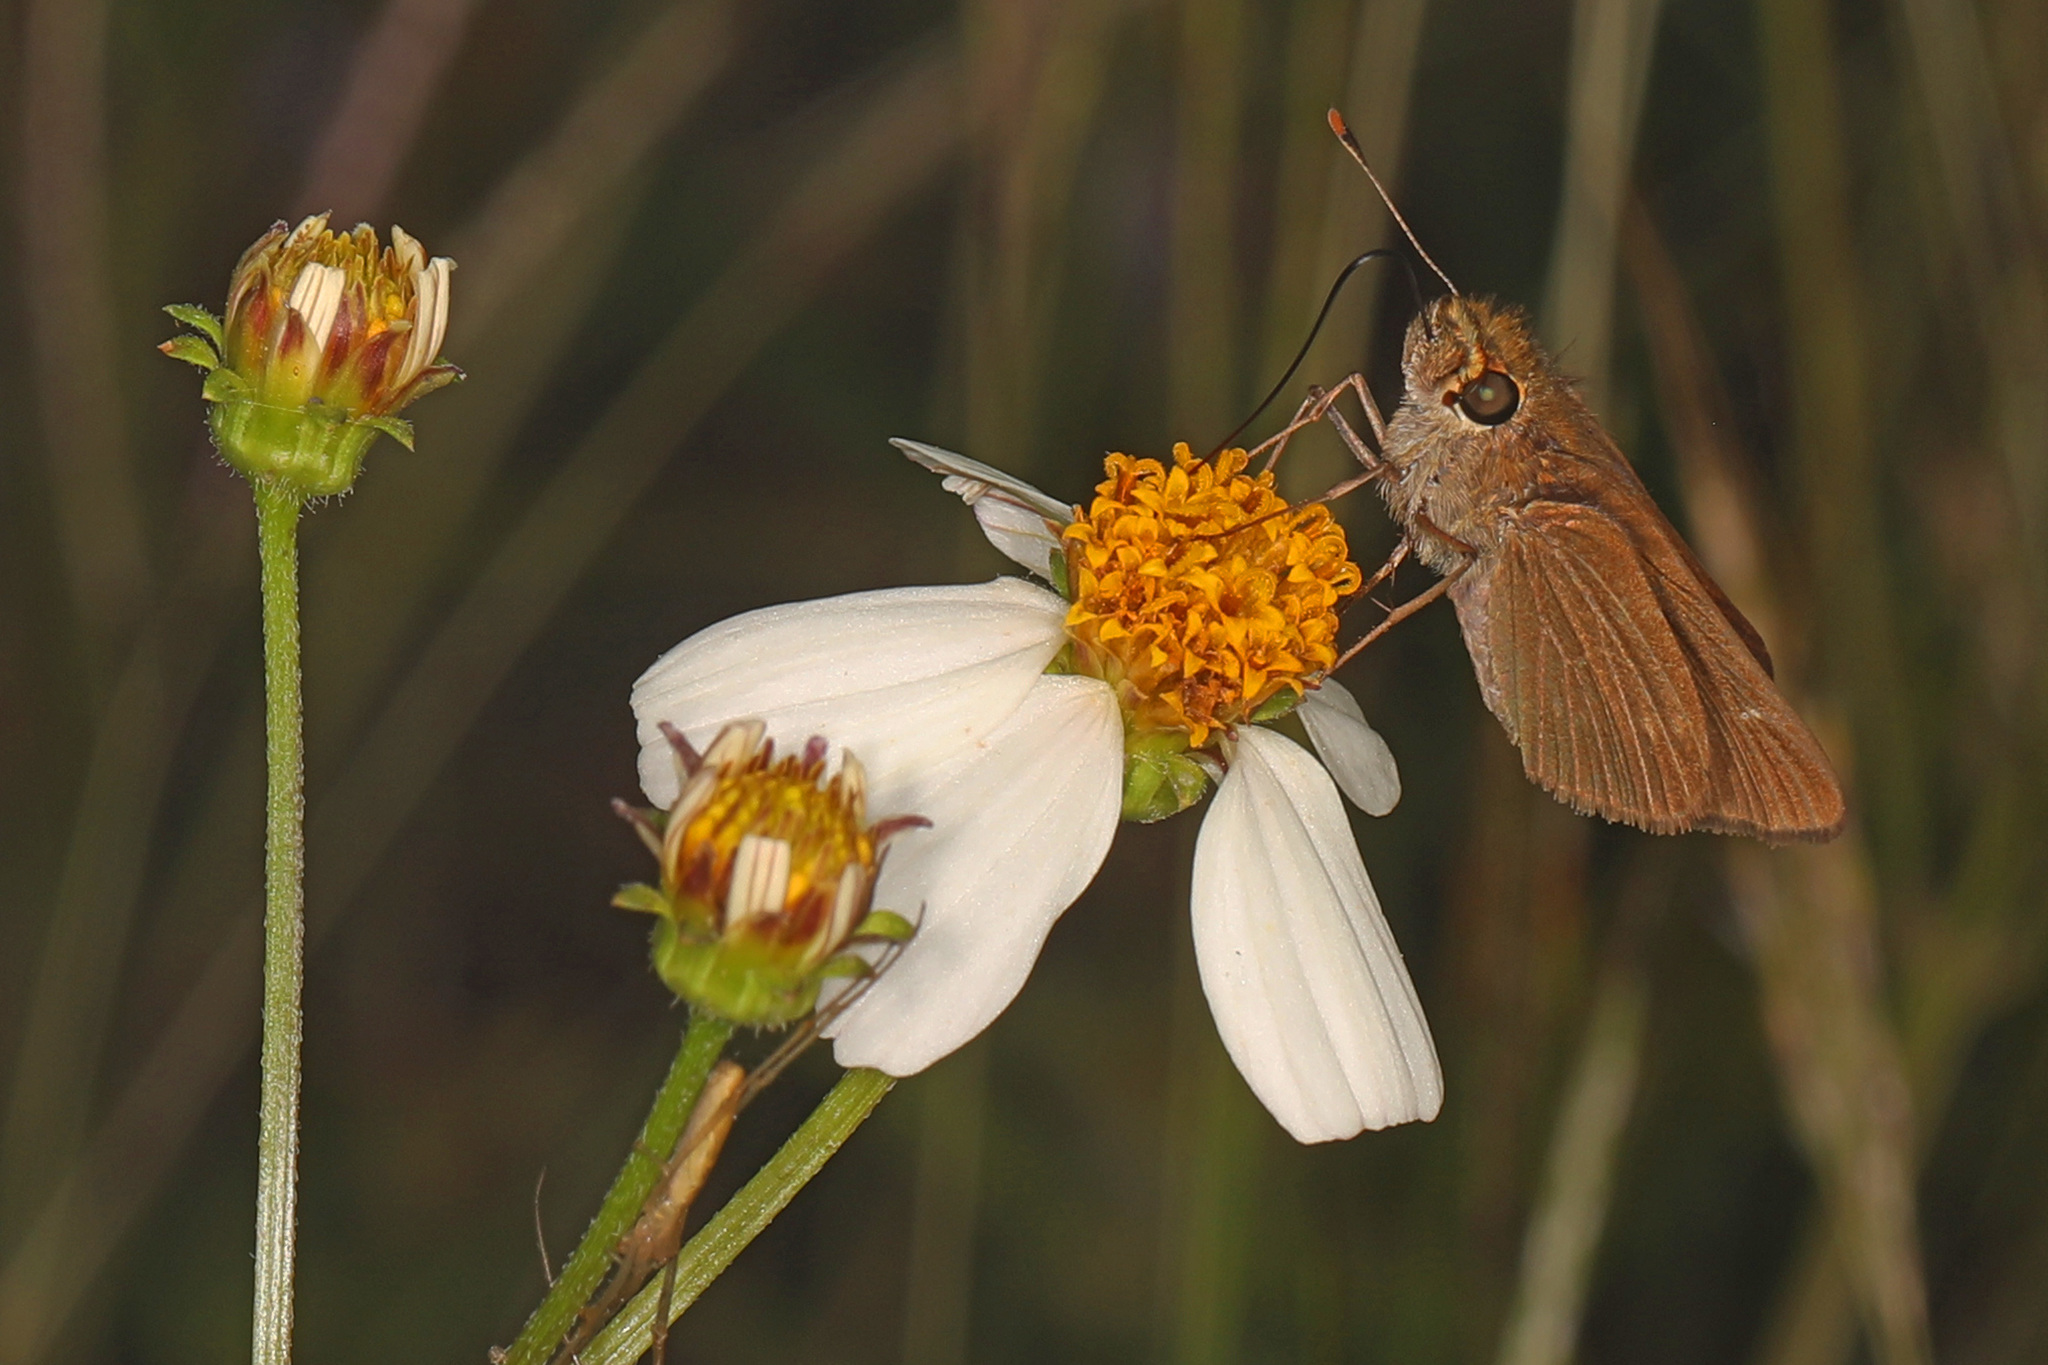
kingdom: Animalia
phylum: Arthropoda
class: Insecta
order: Lepidoptera
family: Hesperiidae
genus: Panoquina
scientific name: Panoquina ocola
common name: Ocola skipper
